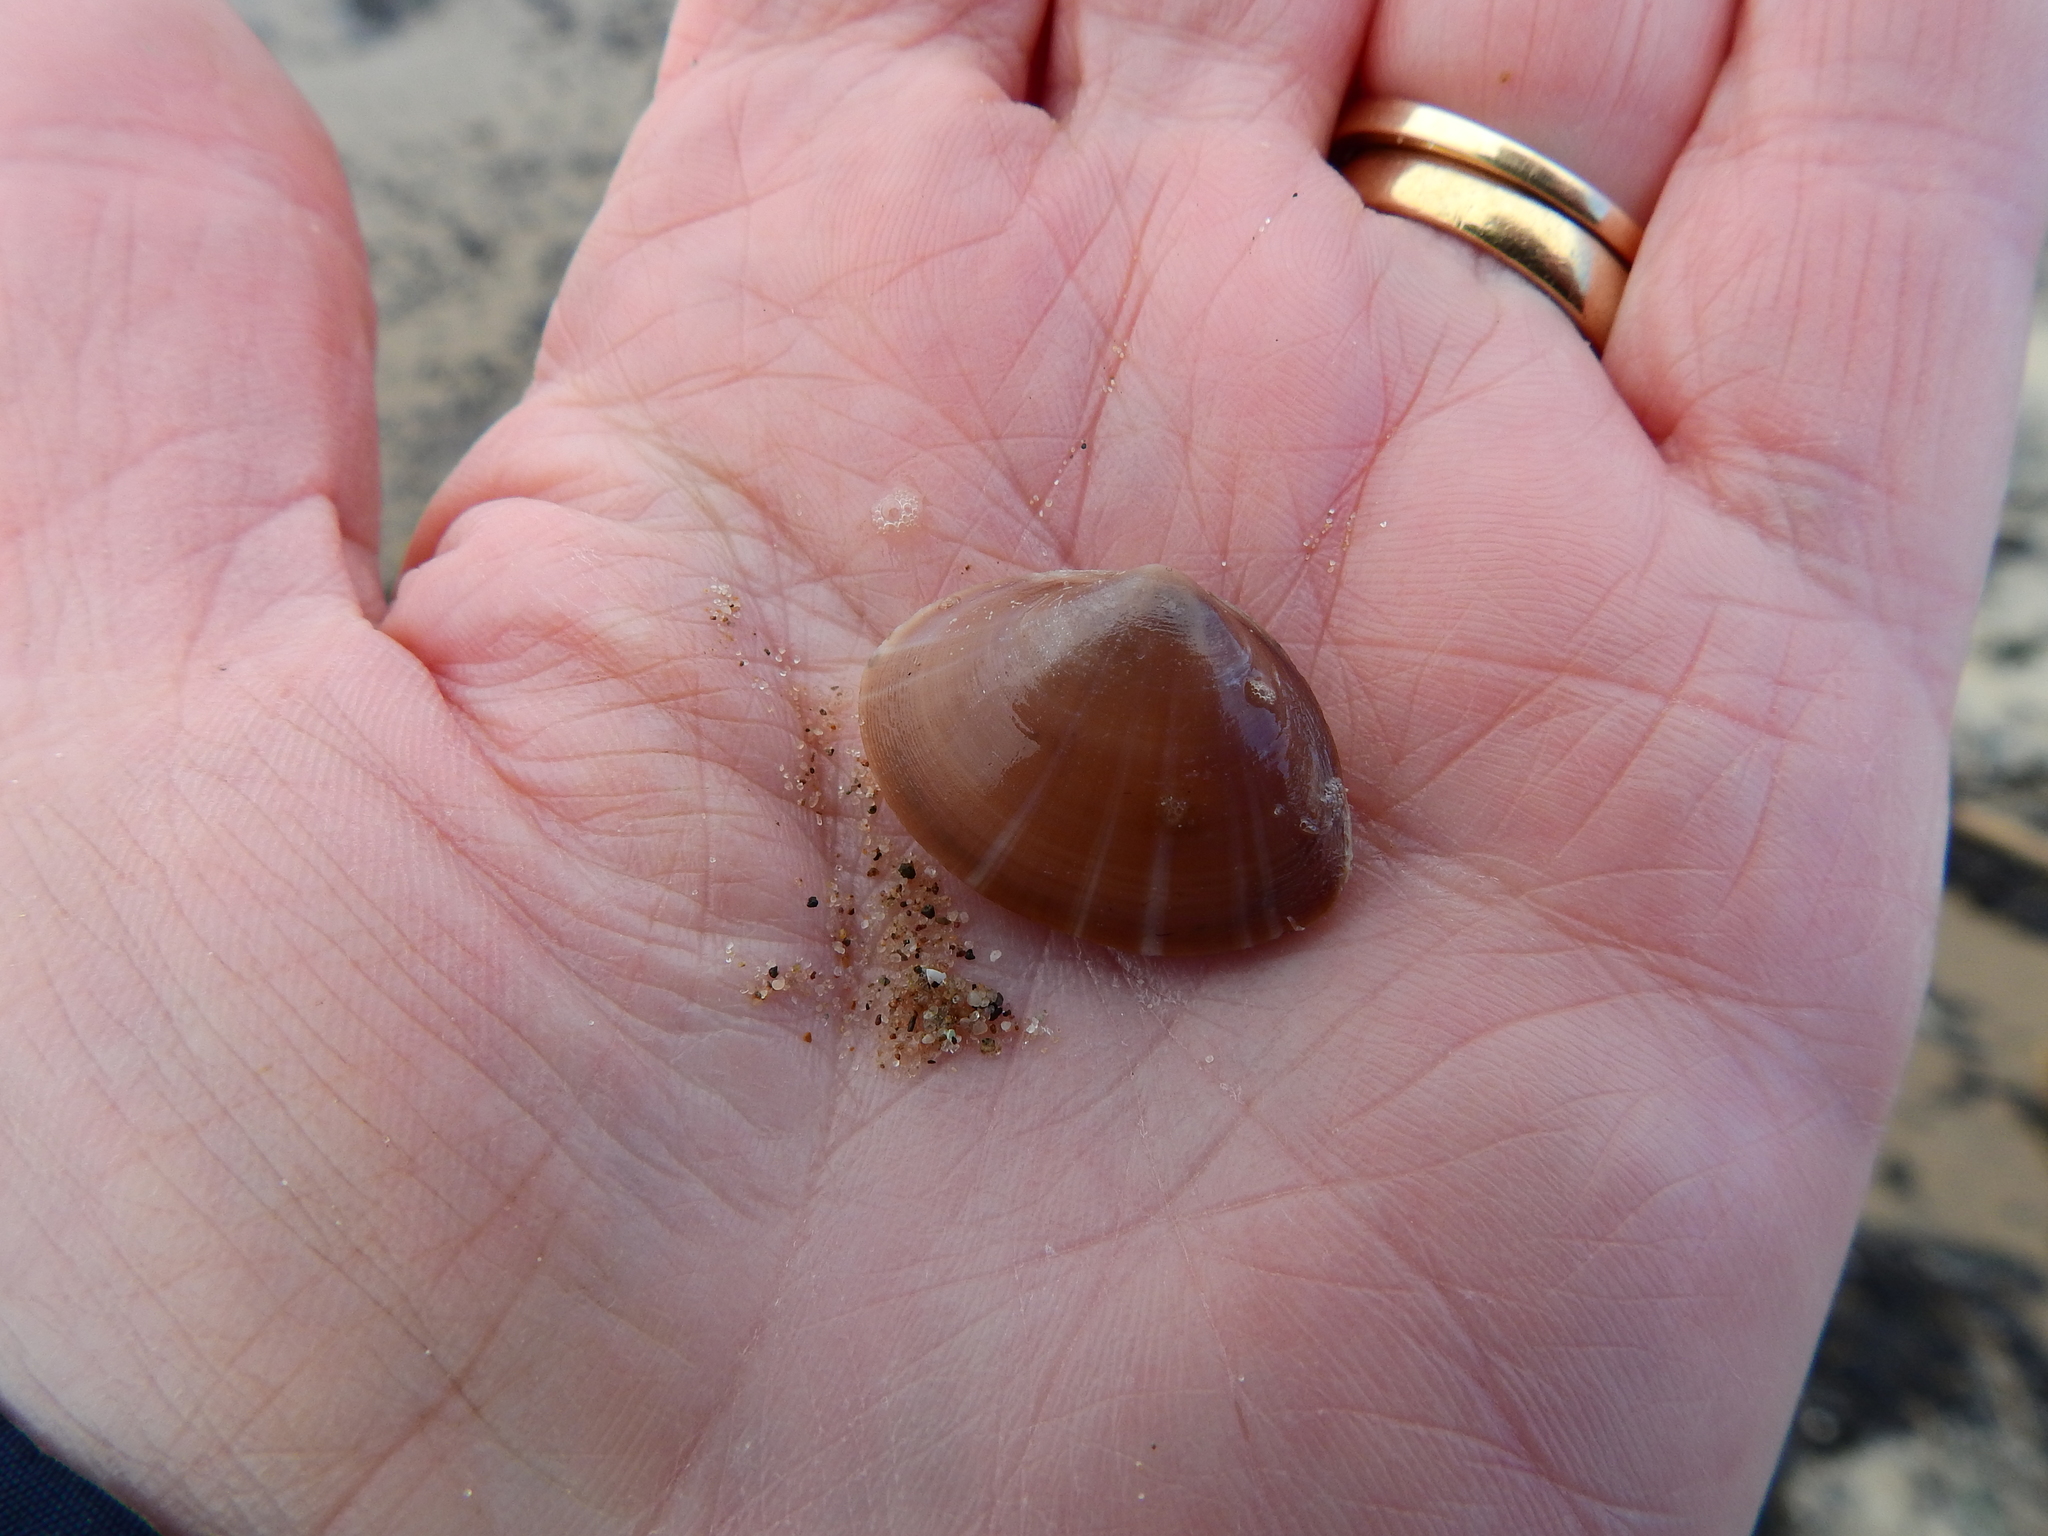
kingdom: Animalia
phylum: Mollusca
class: Bivalvia
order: Venerida
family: Mactridae
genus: Mactra
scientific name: Mactra stultorum
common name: Rayed trough shell
